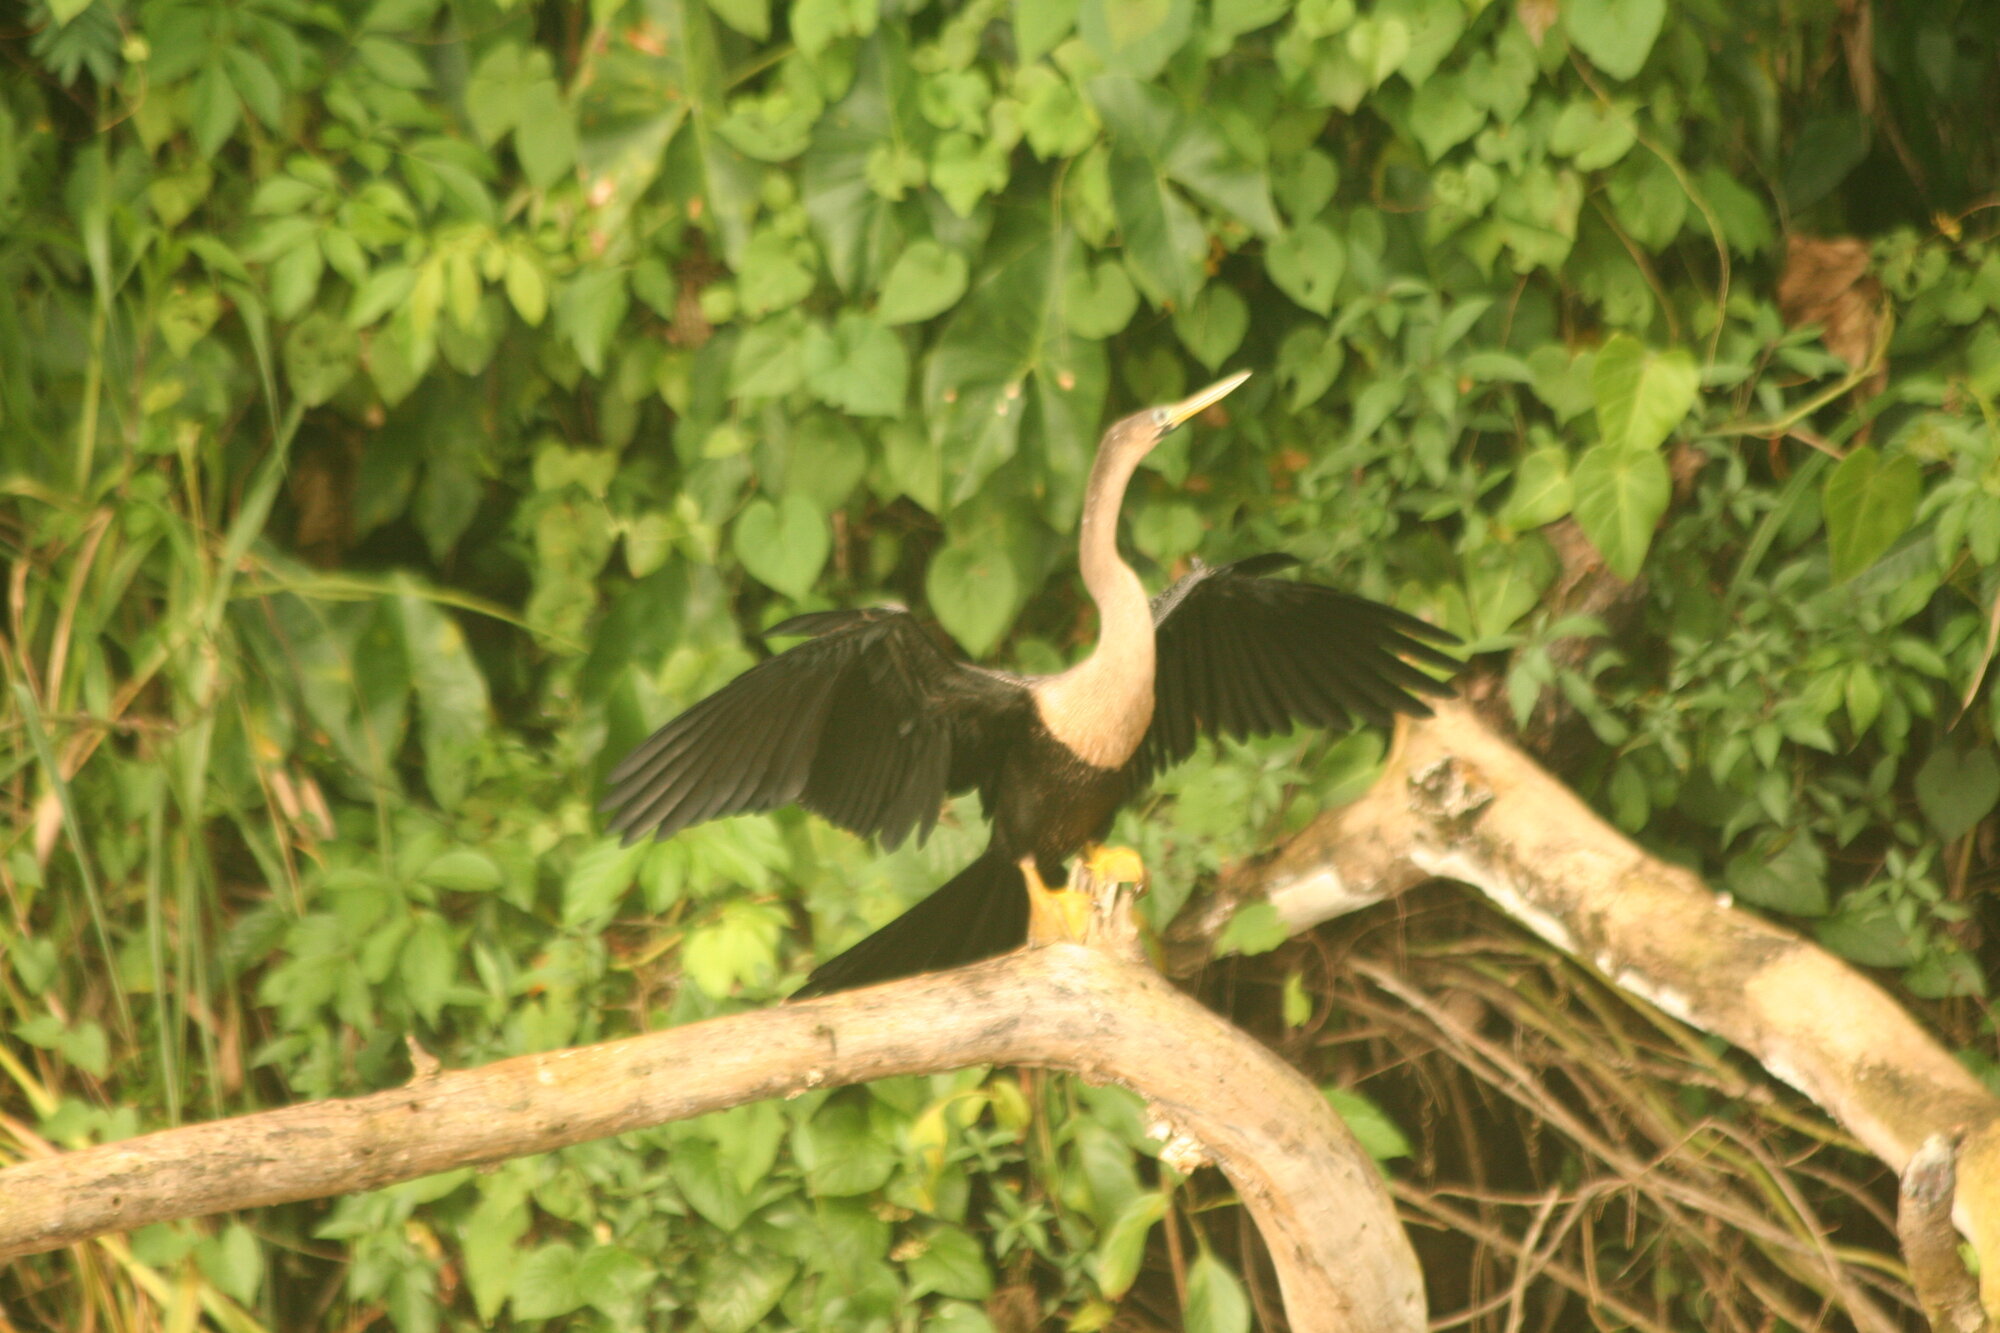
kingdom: Animalia
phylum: Chordata
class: Aves
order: Suliformes
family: Anhingidae
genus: Anhinga
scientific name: Anhinga anhinga
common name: Anhinga
